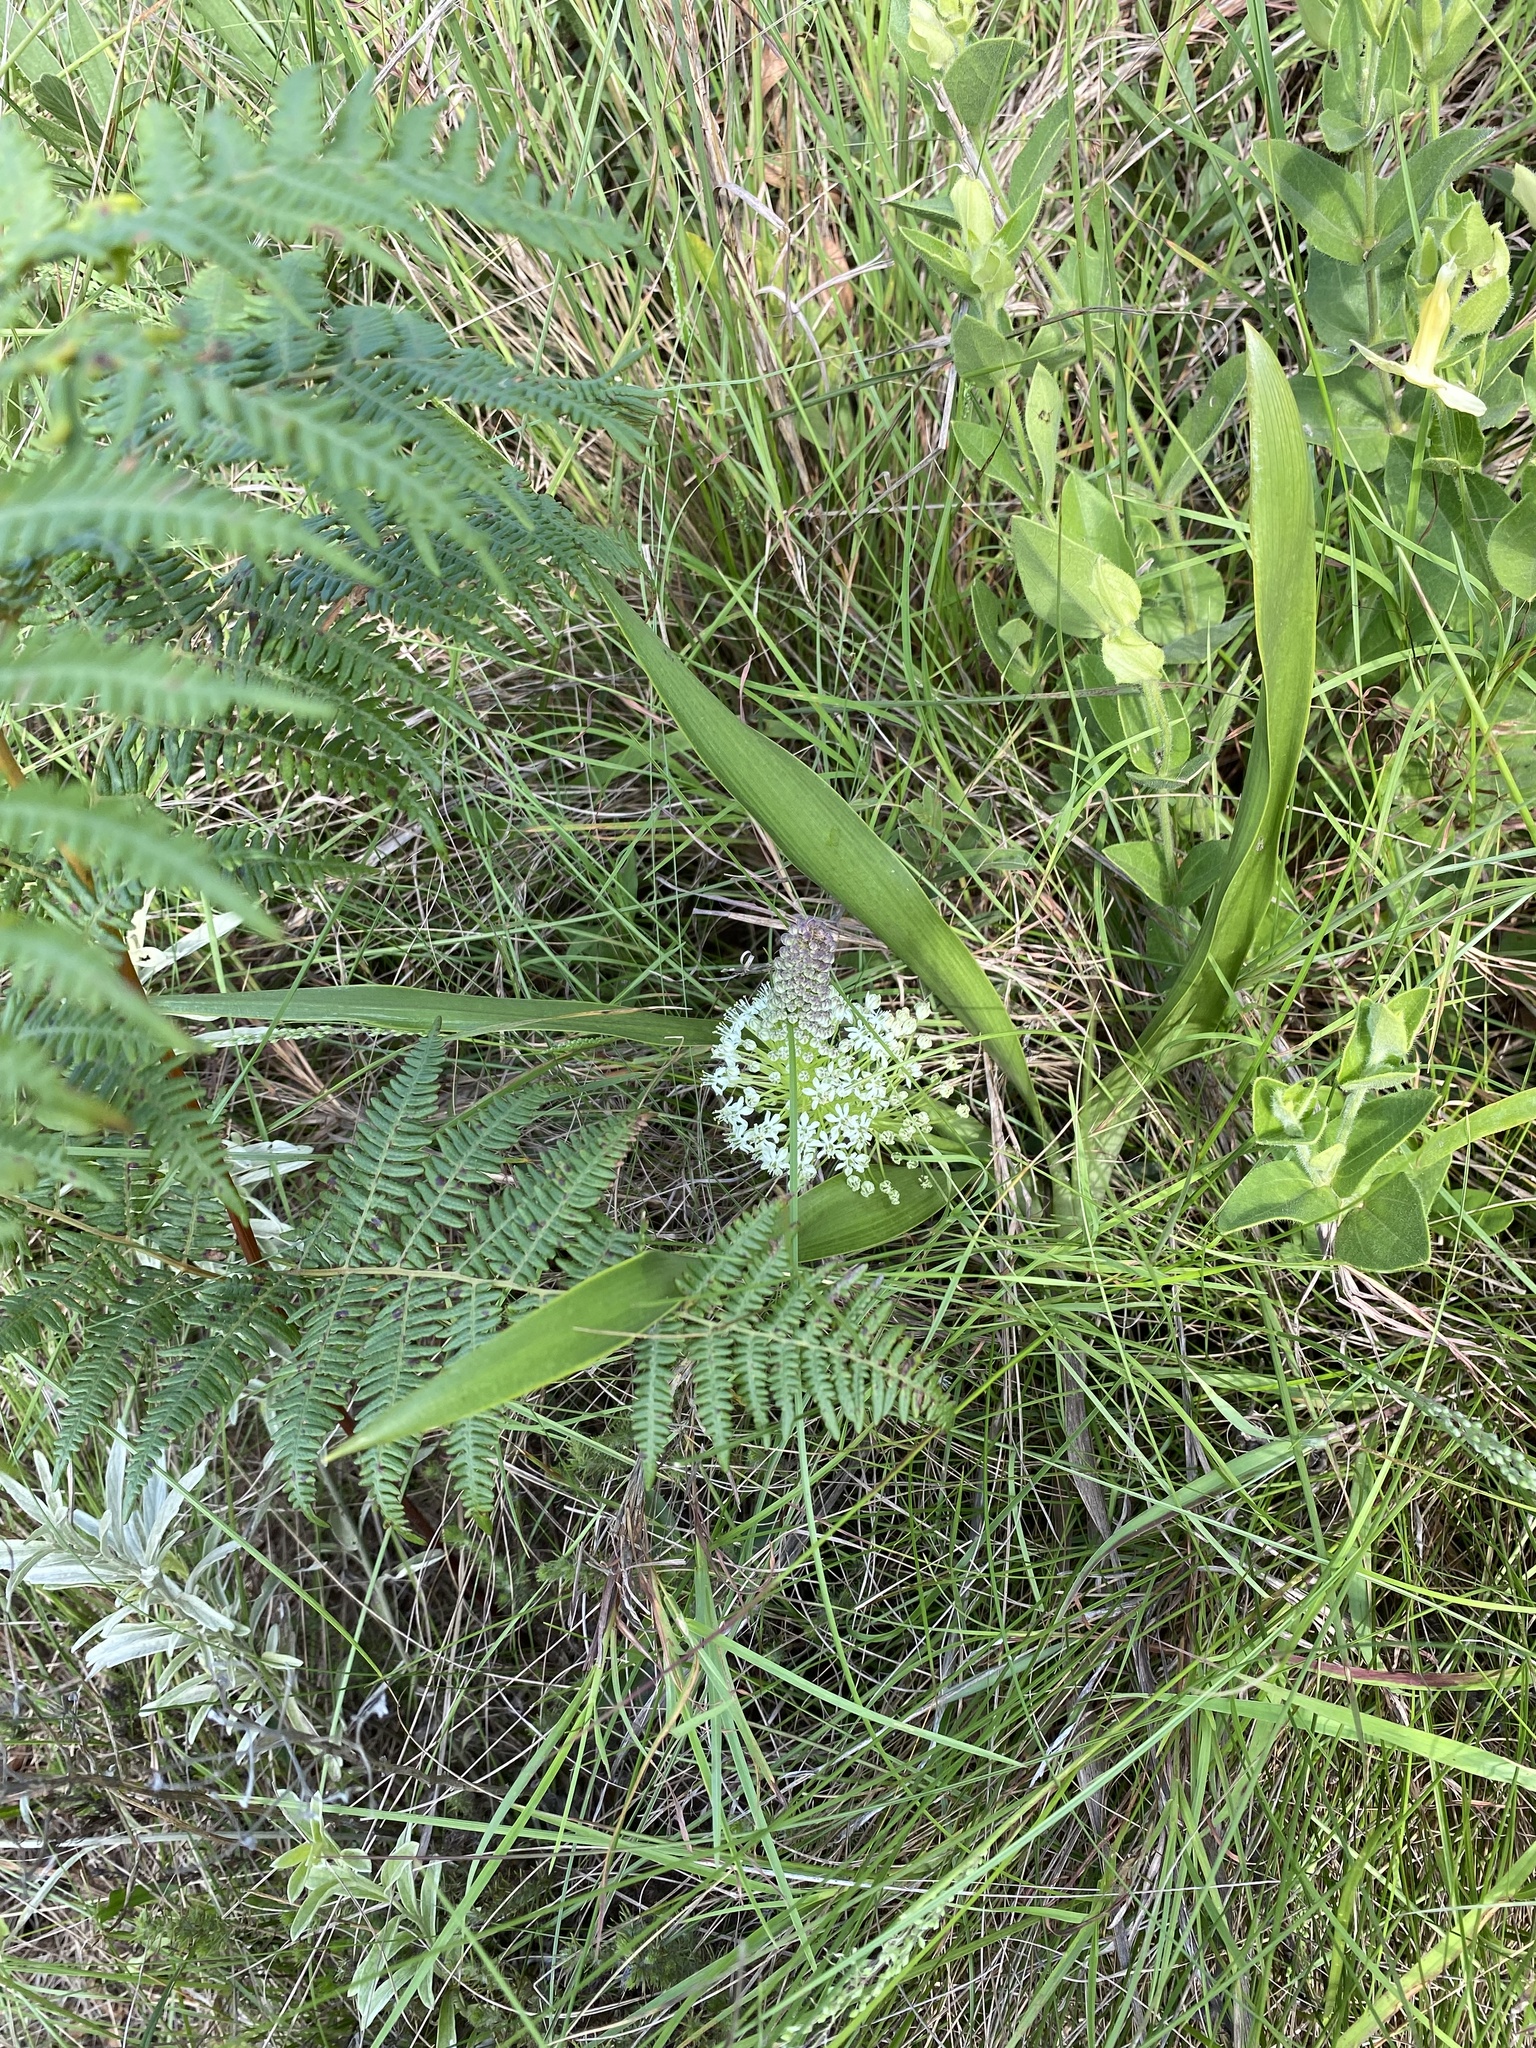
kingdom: Plantae
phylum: Tracheophyta
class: Liliopsida
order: Asparagales
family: Asparagaceae
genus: Schizocarphus
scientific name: Schizocarphus nervosus
